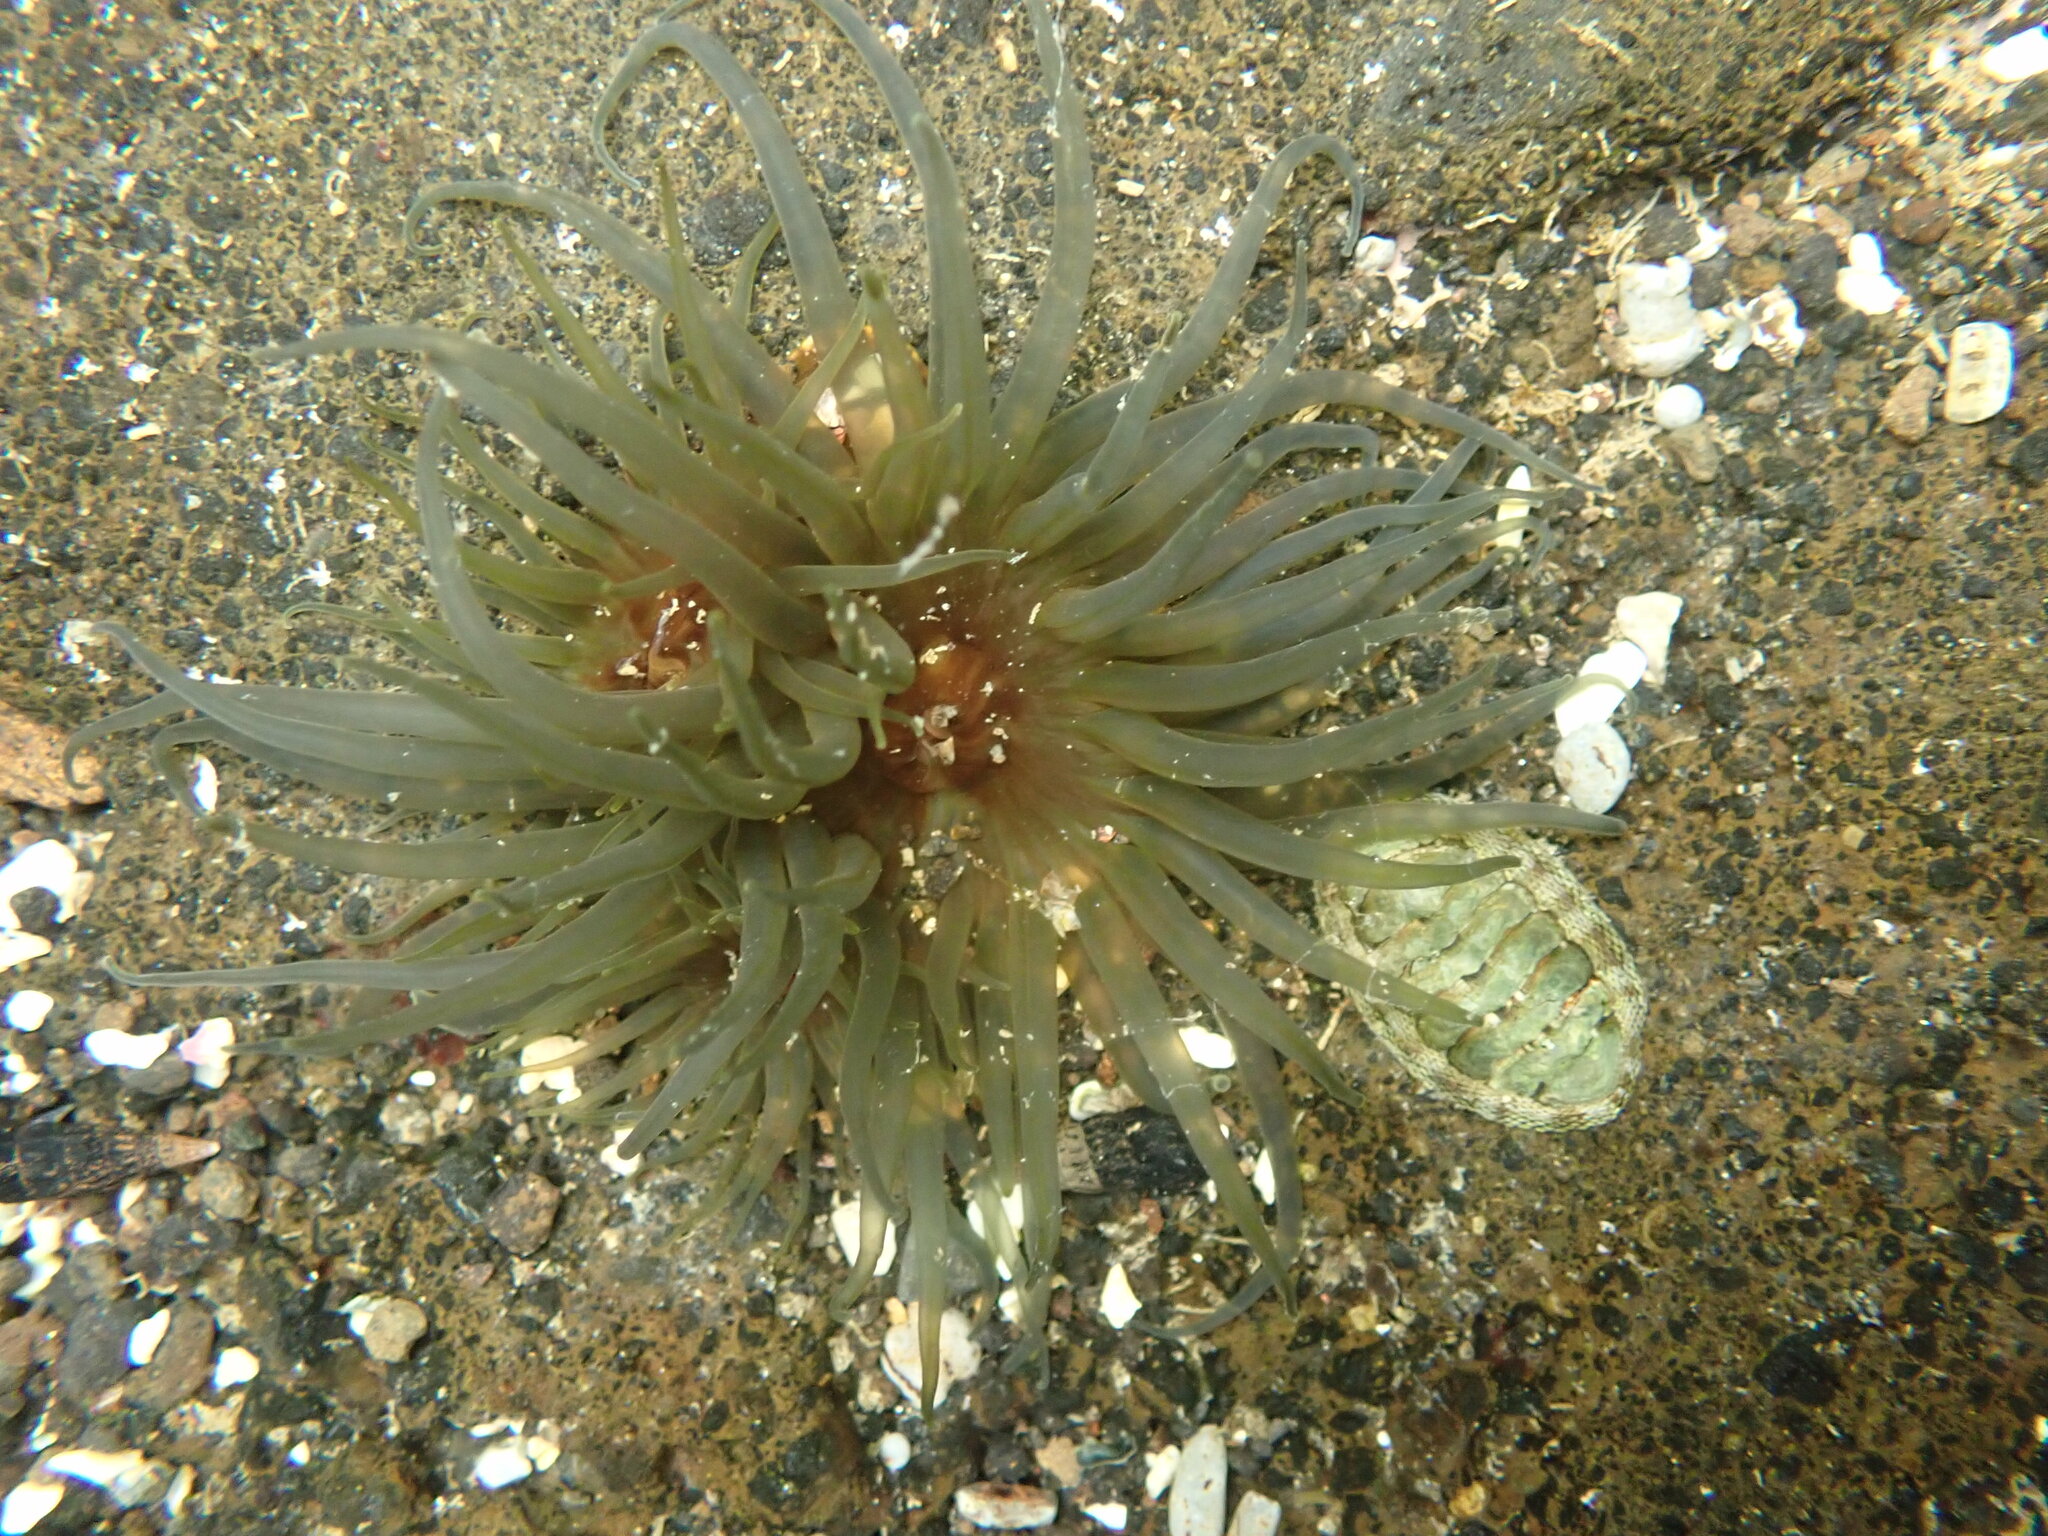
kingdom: Animalia
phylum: Cnidaria
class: Anthozoa
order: Actiniaria
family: Actiniidae
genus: Isactinia
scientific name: Isactinia olivacea
